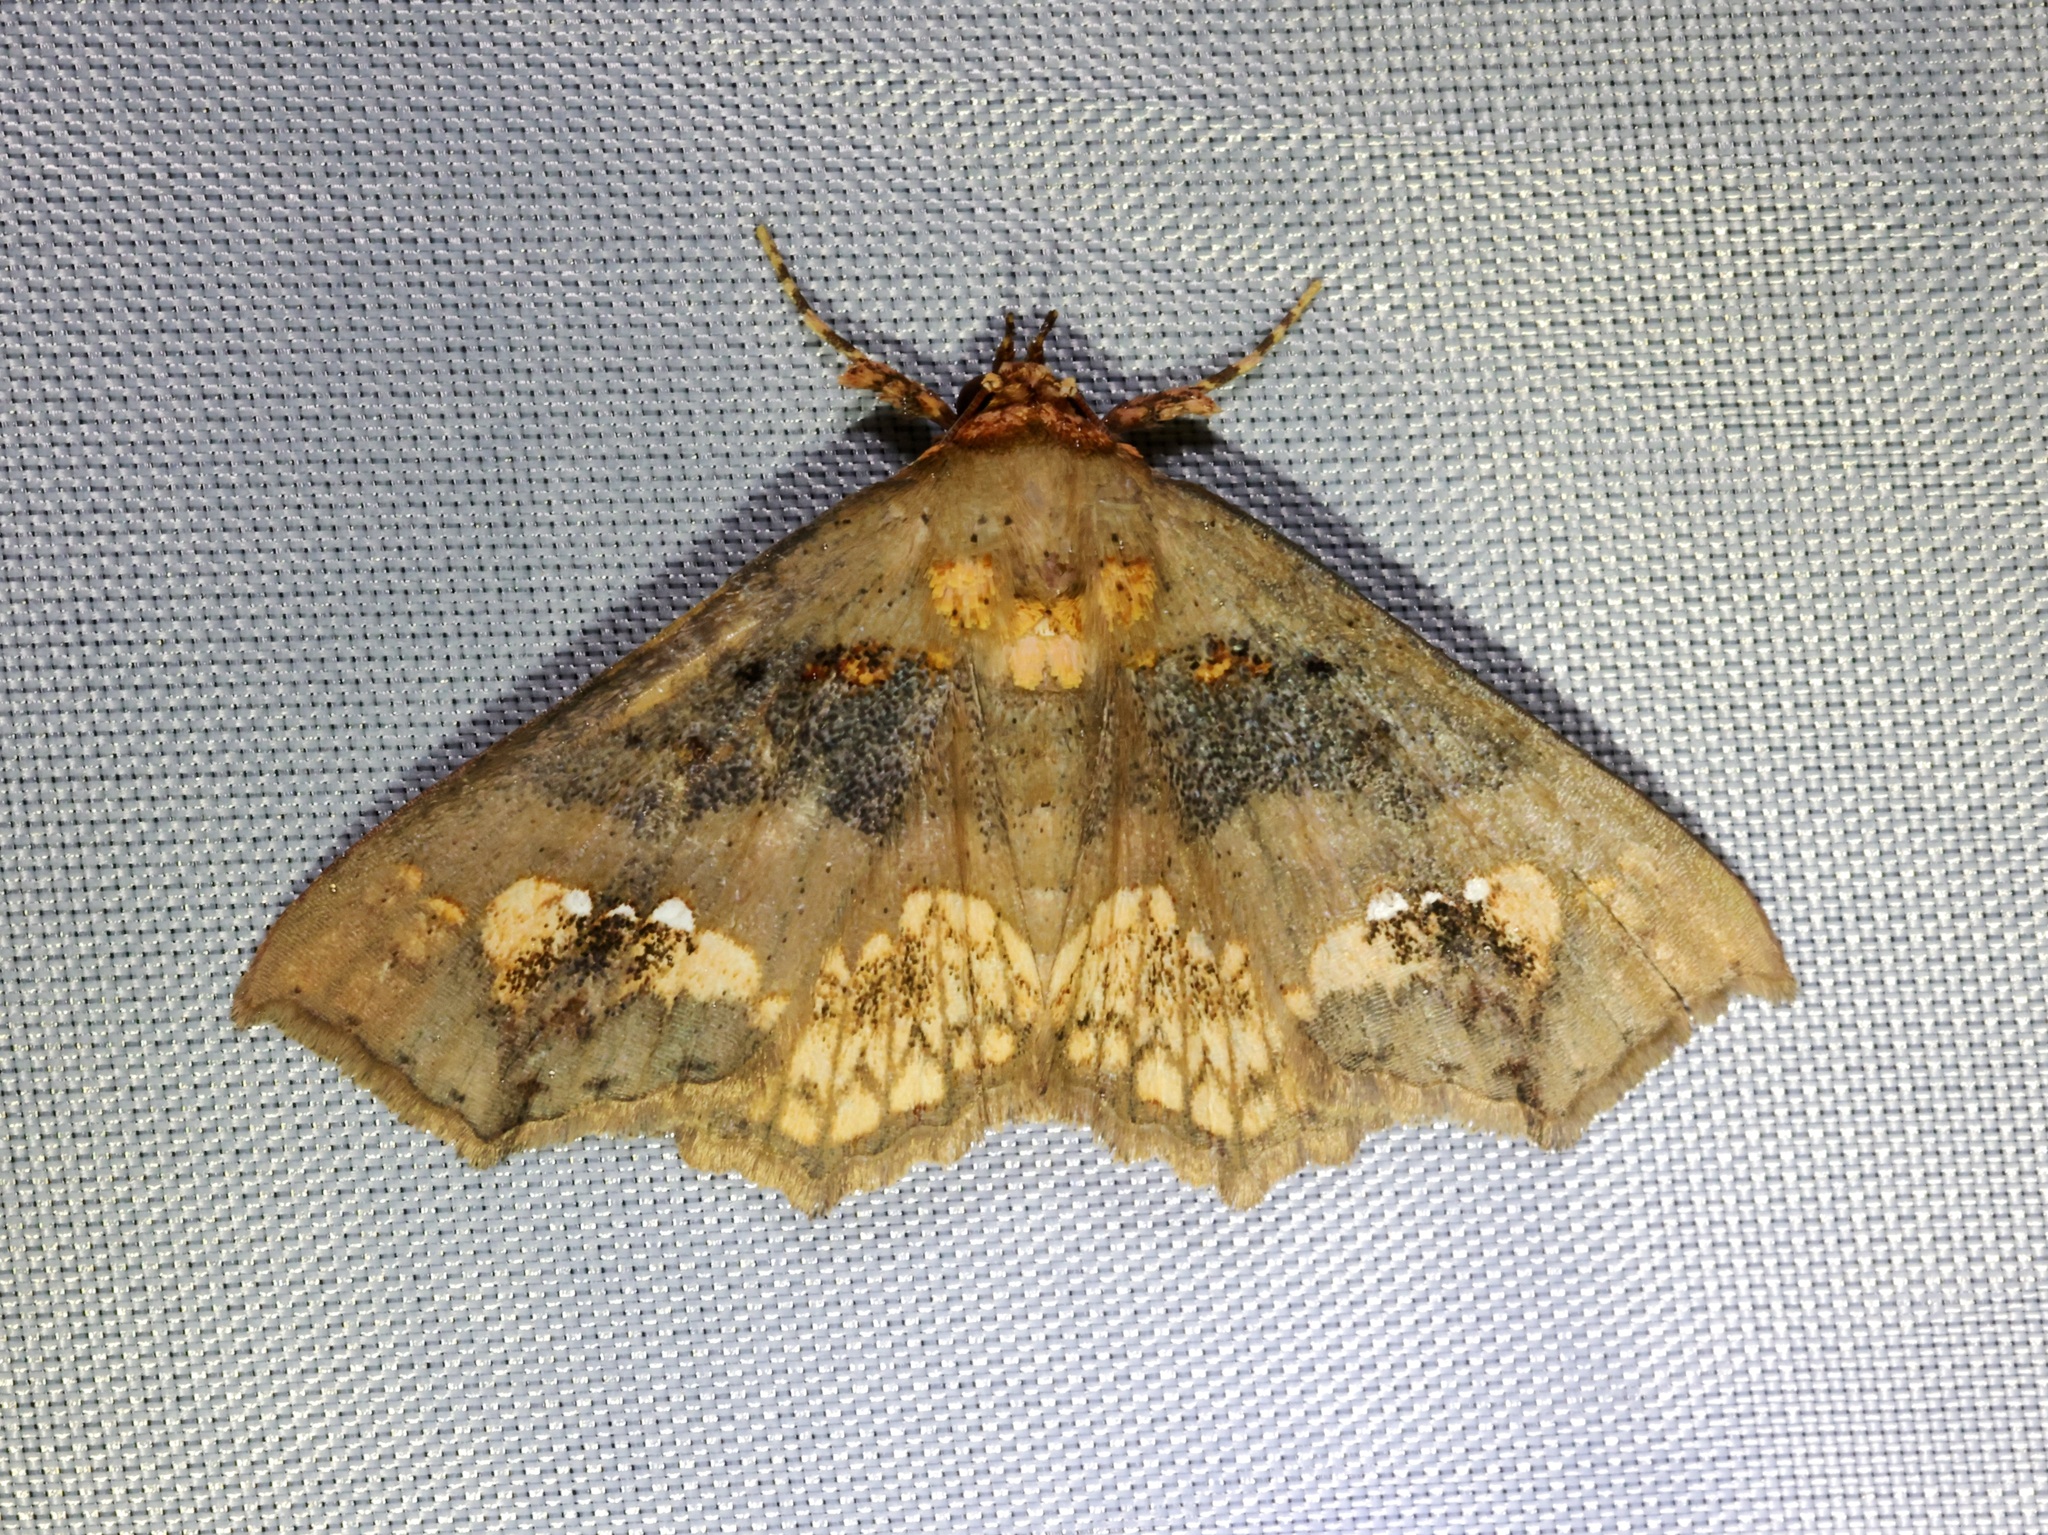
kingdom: Animalia
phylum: Arthropoda
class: Insecta
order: Lepidoptera
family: Erebidae
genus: Lopharthrum
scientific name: Lopharthrum comprimens
